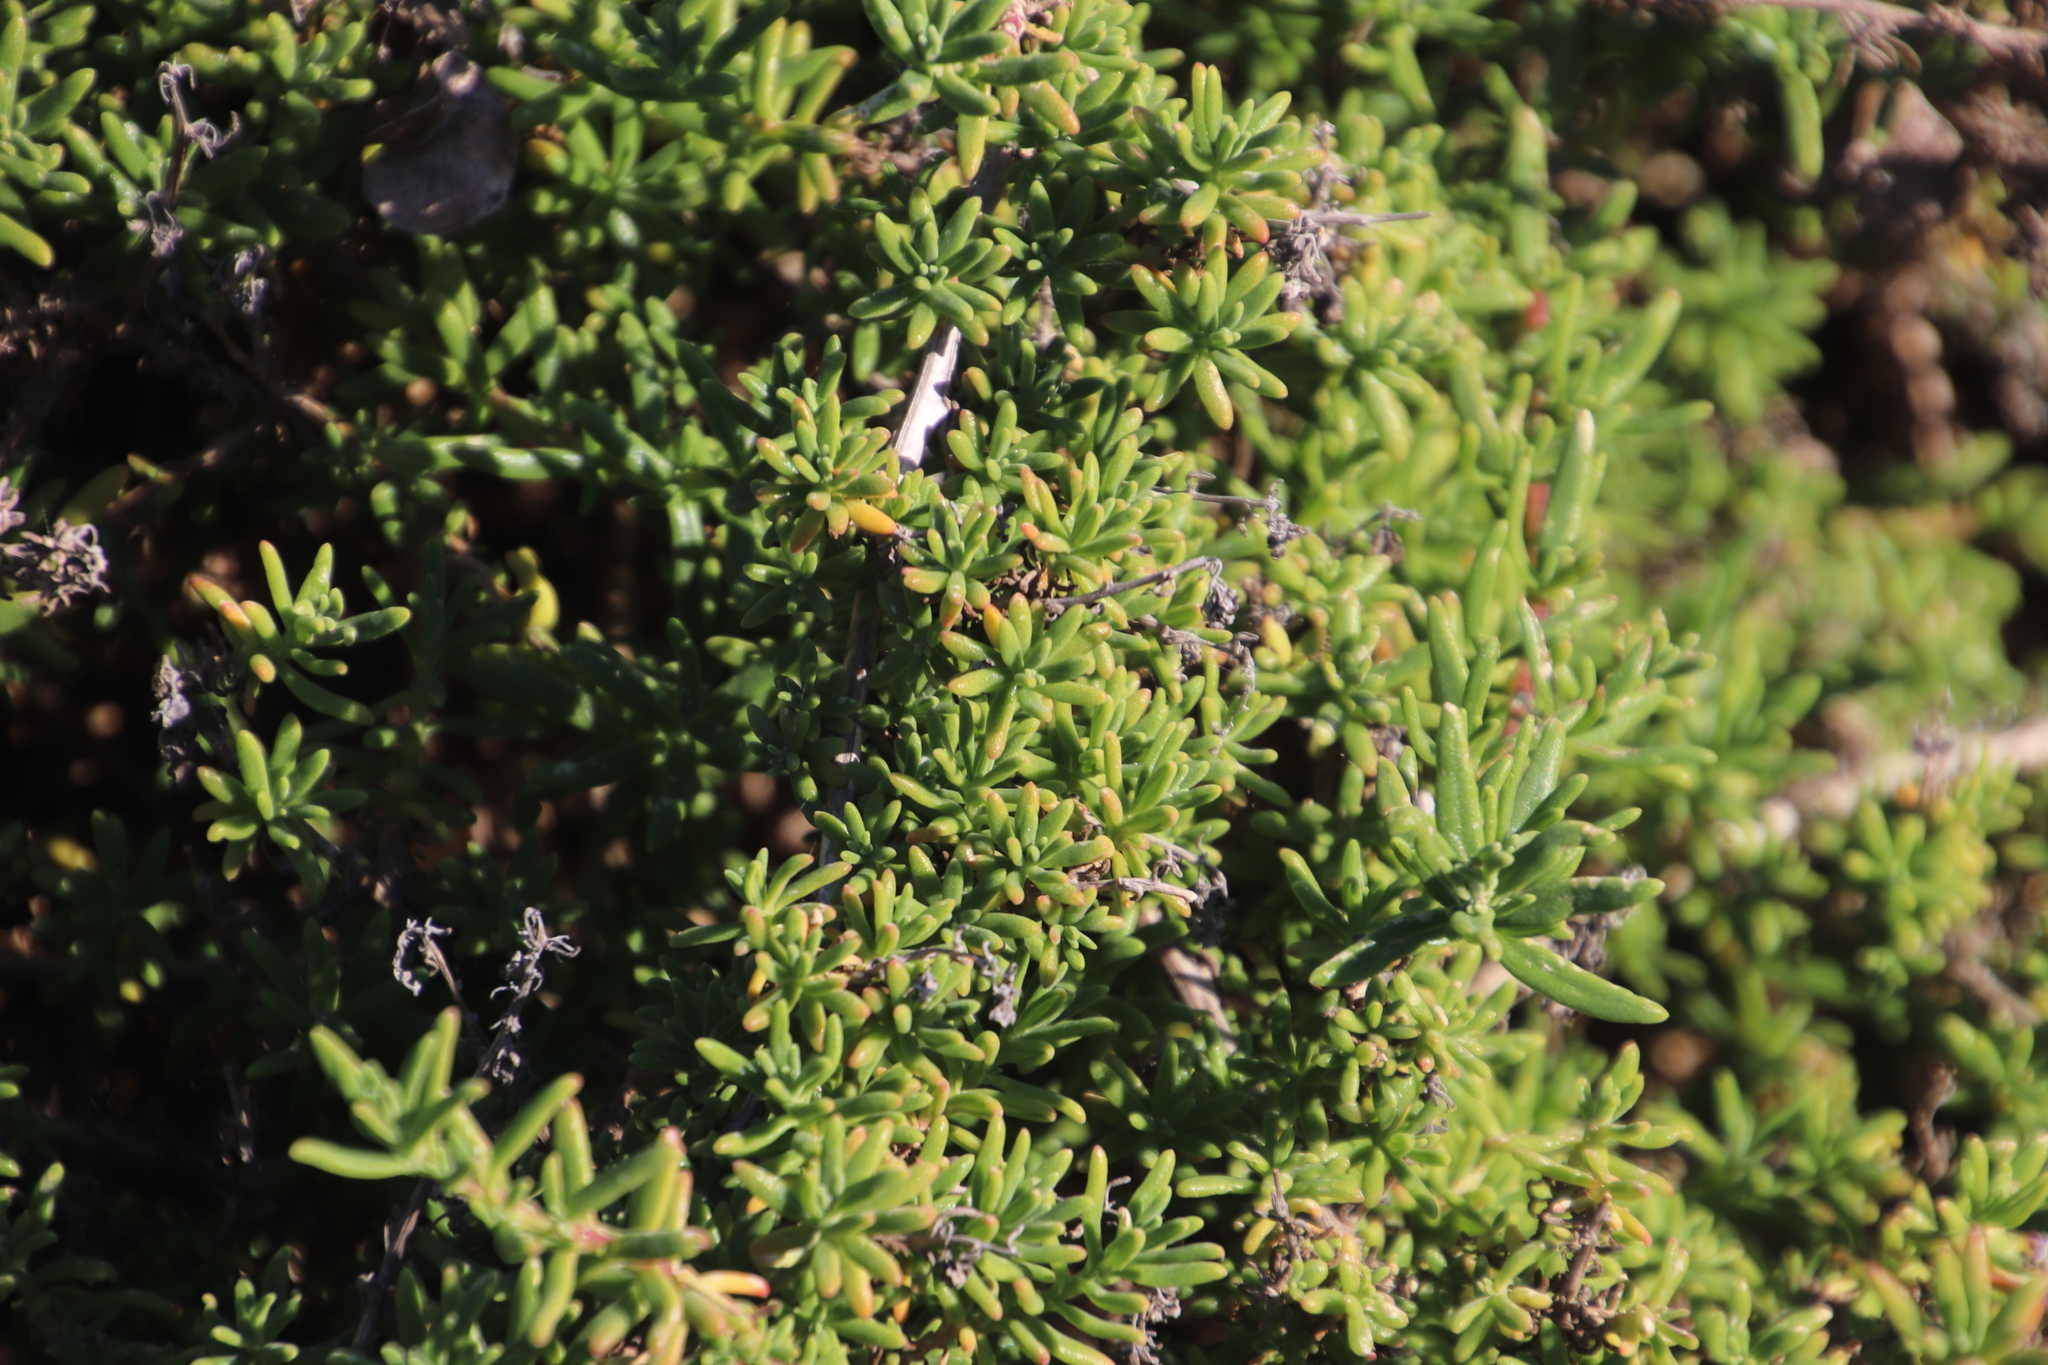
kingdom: Plantae
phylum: Tracheophyta
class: Magnoliopsida
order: Caryophyllales
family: Aizoaceae
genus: Tetragonia
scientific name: Tetragonia fruticosa
